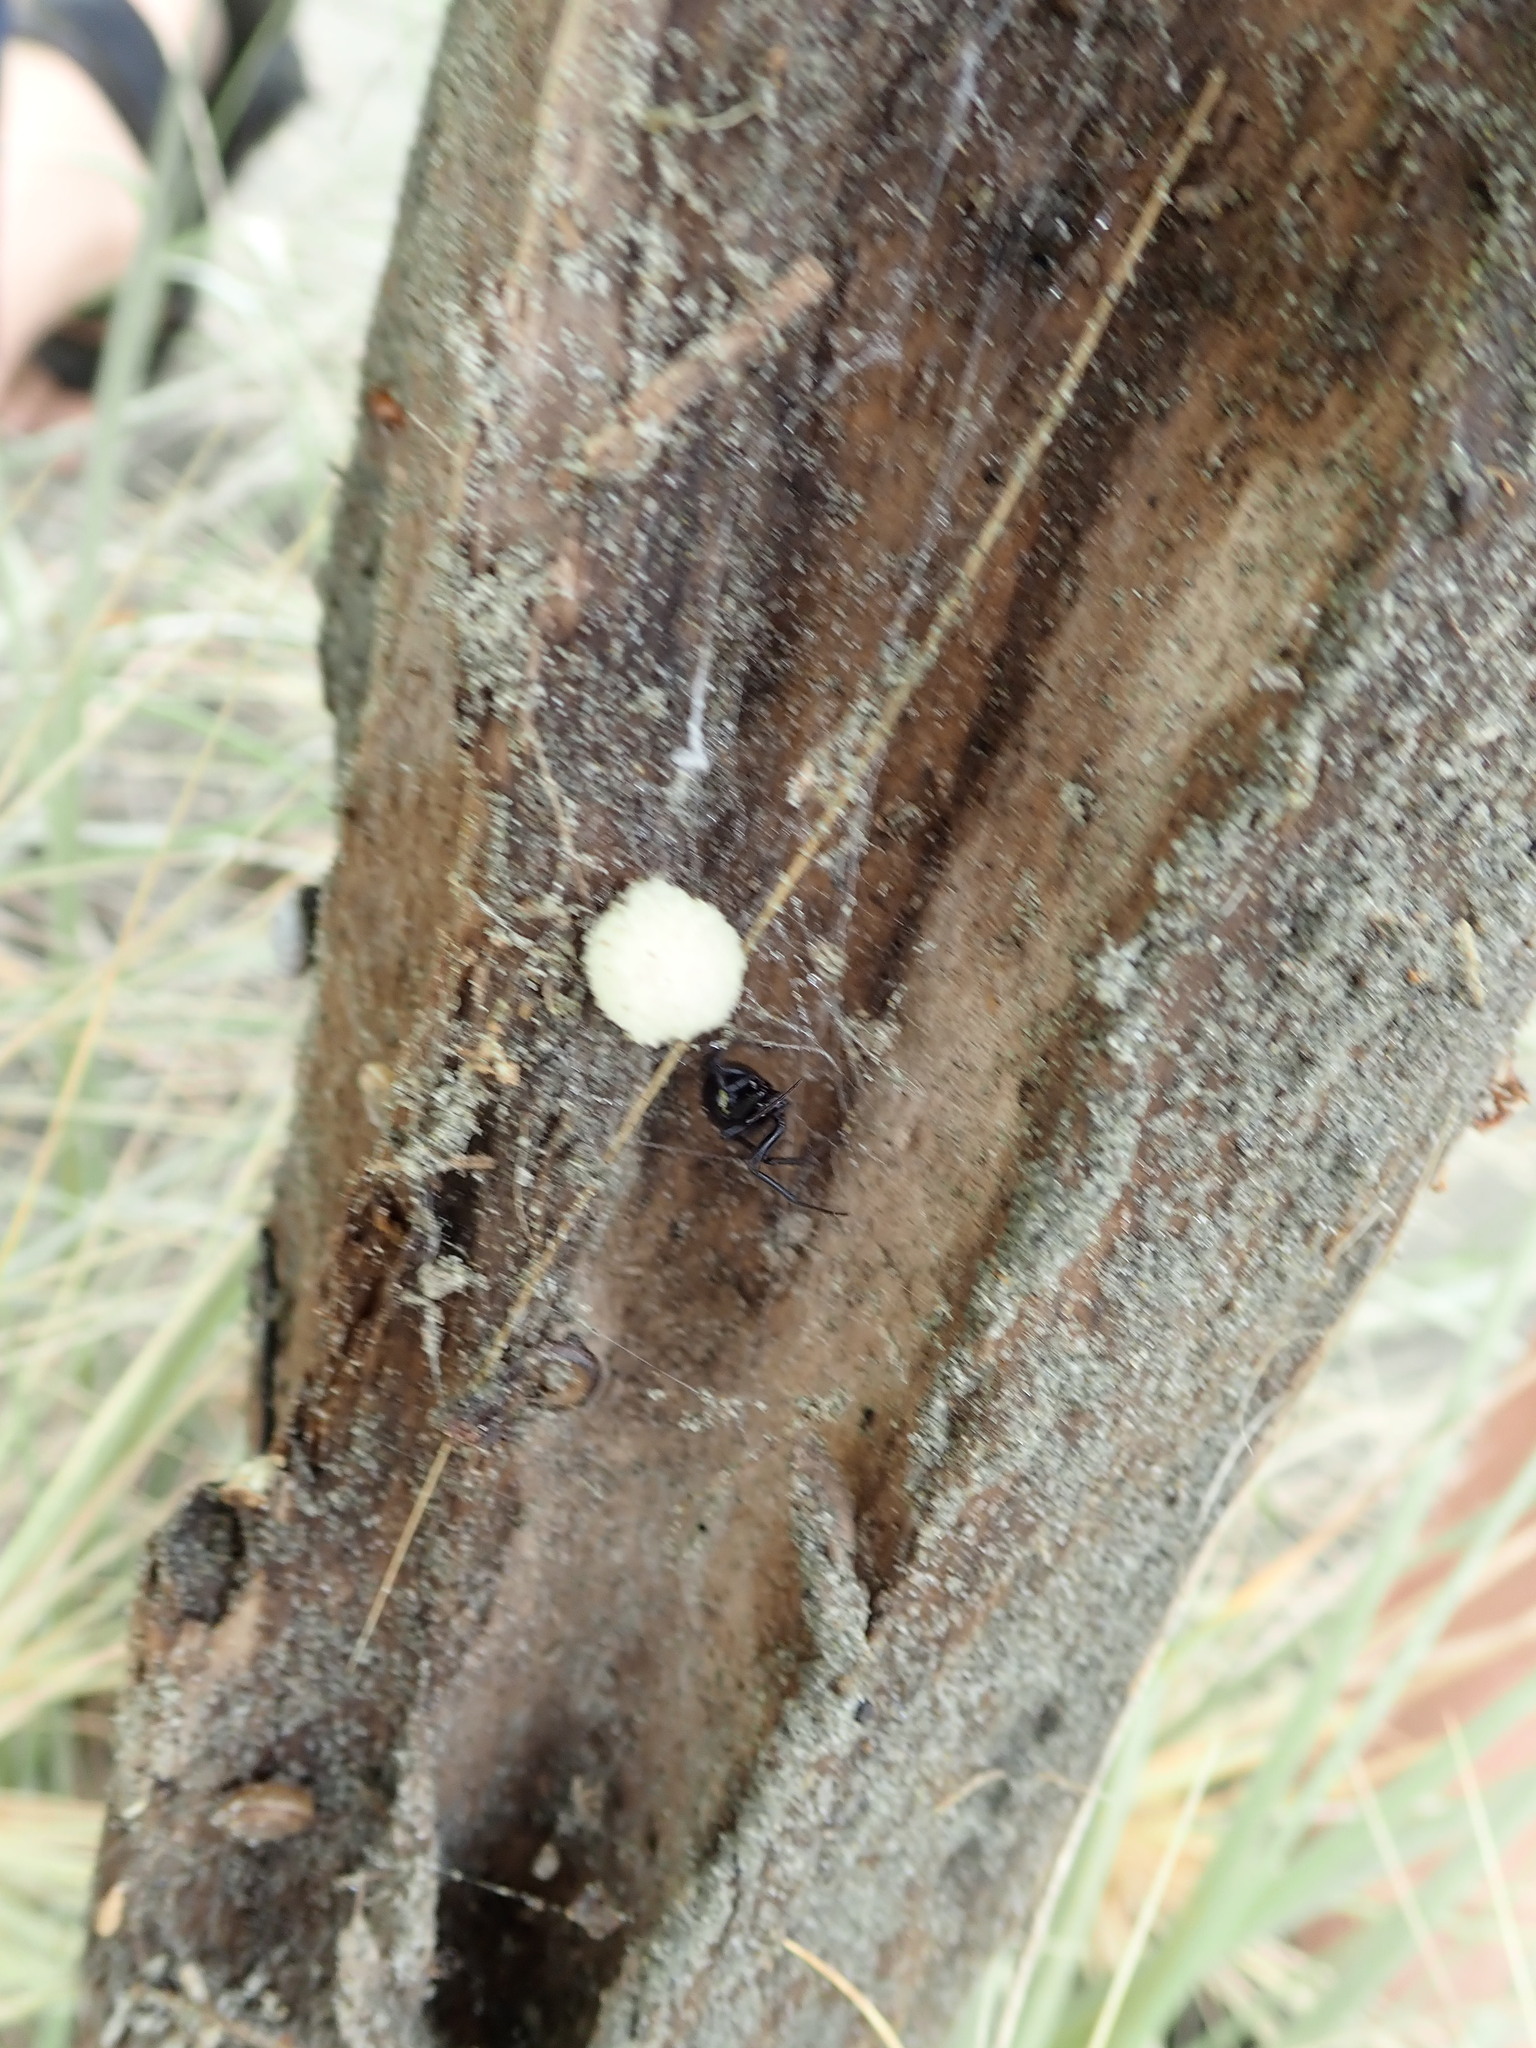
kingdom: Animalia
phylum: Arthropoda
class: Arachnida
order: Araneae
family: Theridiidae
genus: Steatoda
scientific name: Steatoda capensis
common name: Cobweb weaver
